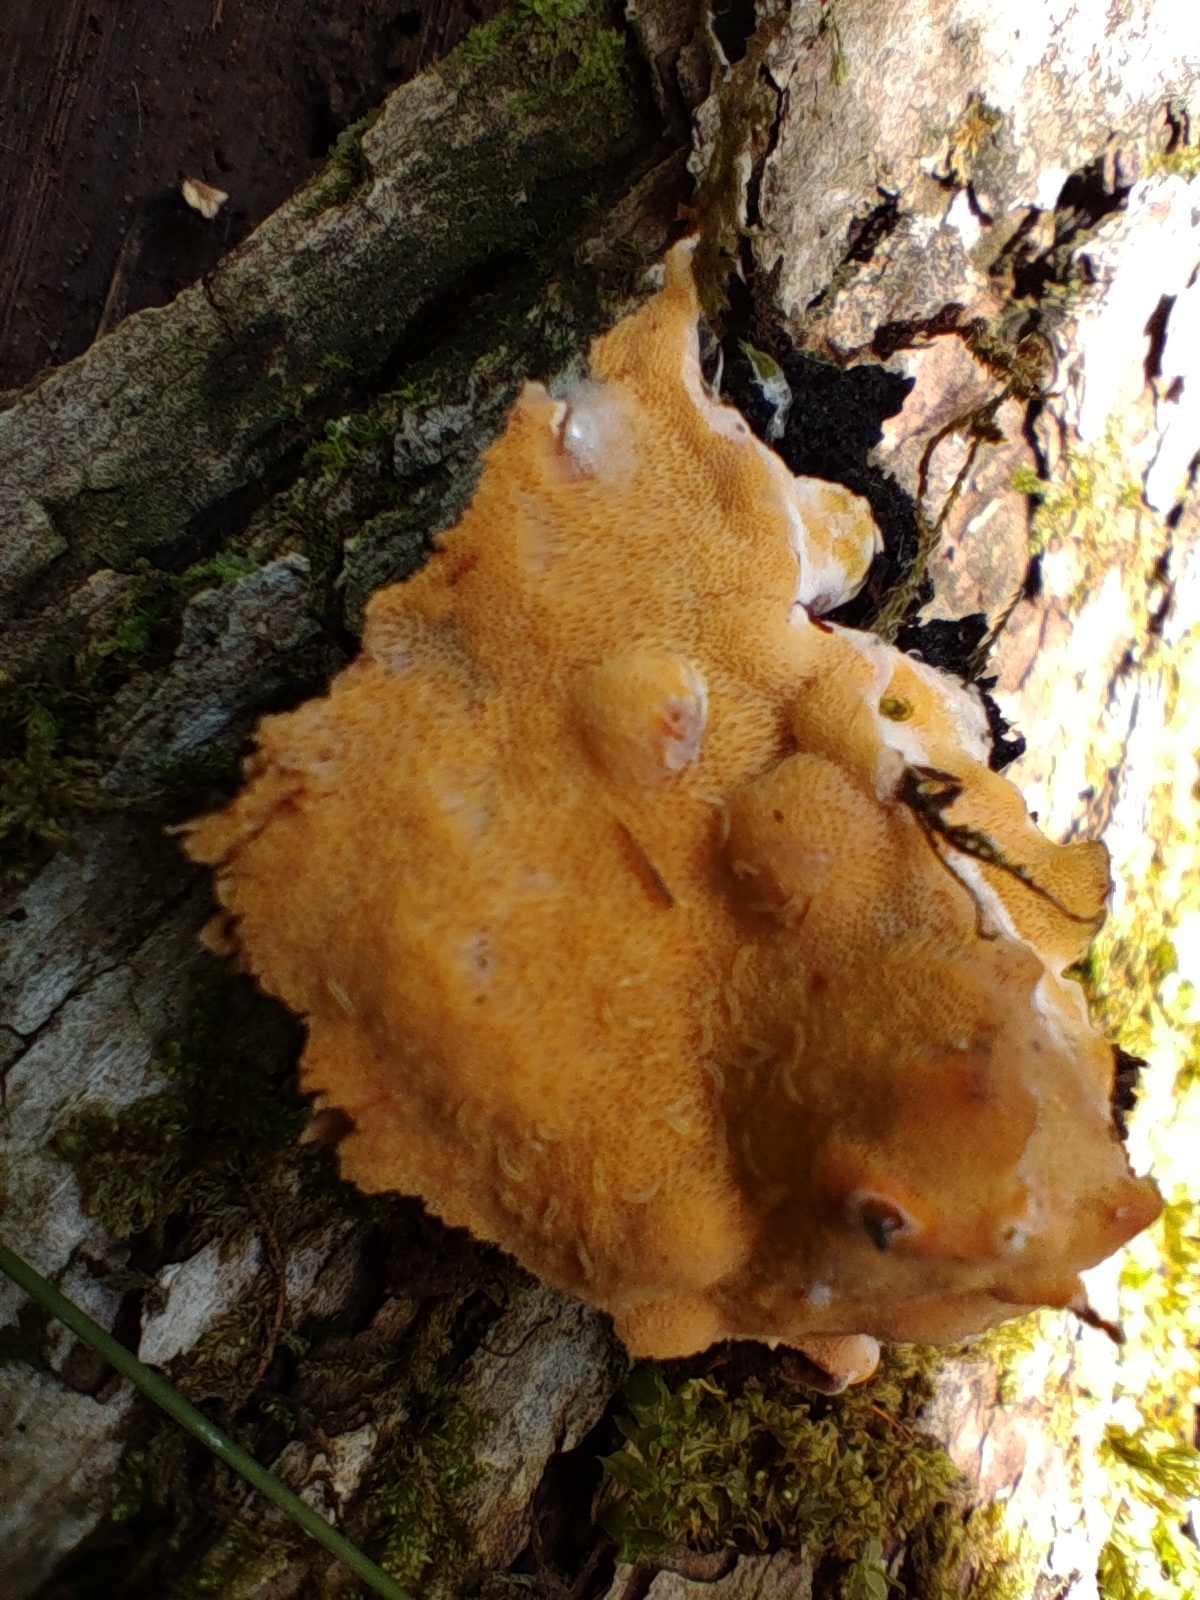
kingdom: Fungi
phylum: Basidiomycota
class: Agaricomycetes
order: Polyporales
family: Irpicaceae
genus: Ceriporia
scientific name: Ceriporia spissa
